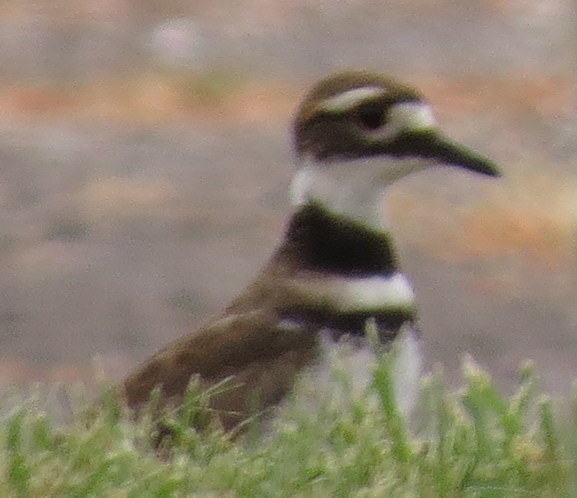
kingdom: Animalia
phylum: Chordata
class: Aves
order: Charadriiformes
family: Charadriidae
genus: Charadrius
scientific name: Charadrius vociferus
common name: Killdeer
